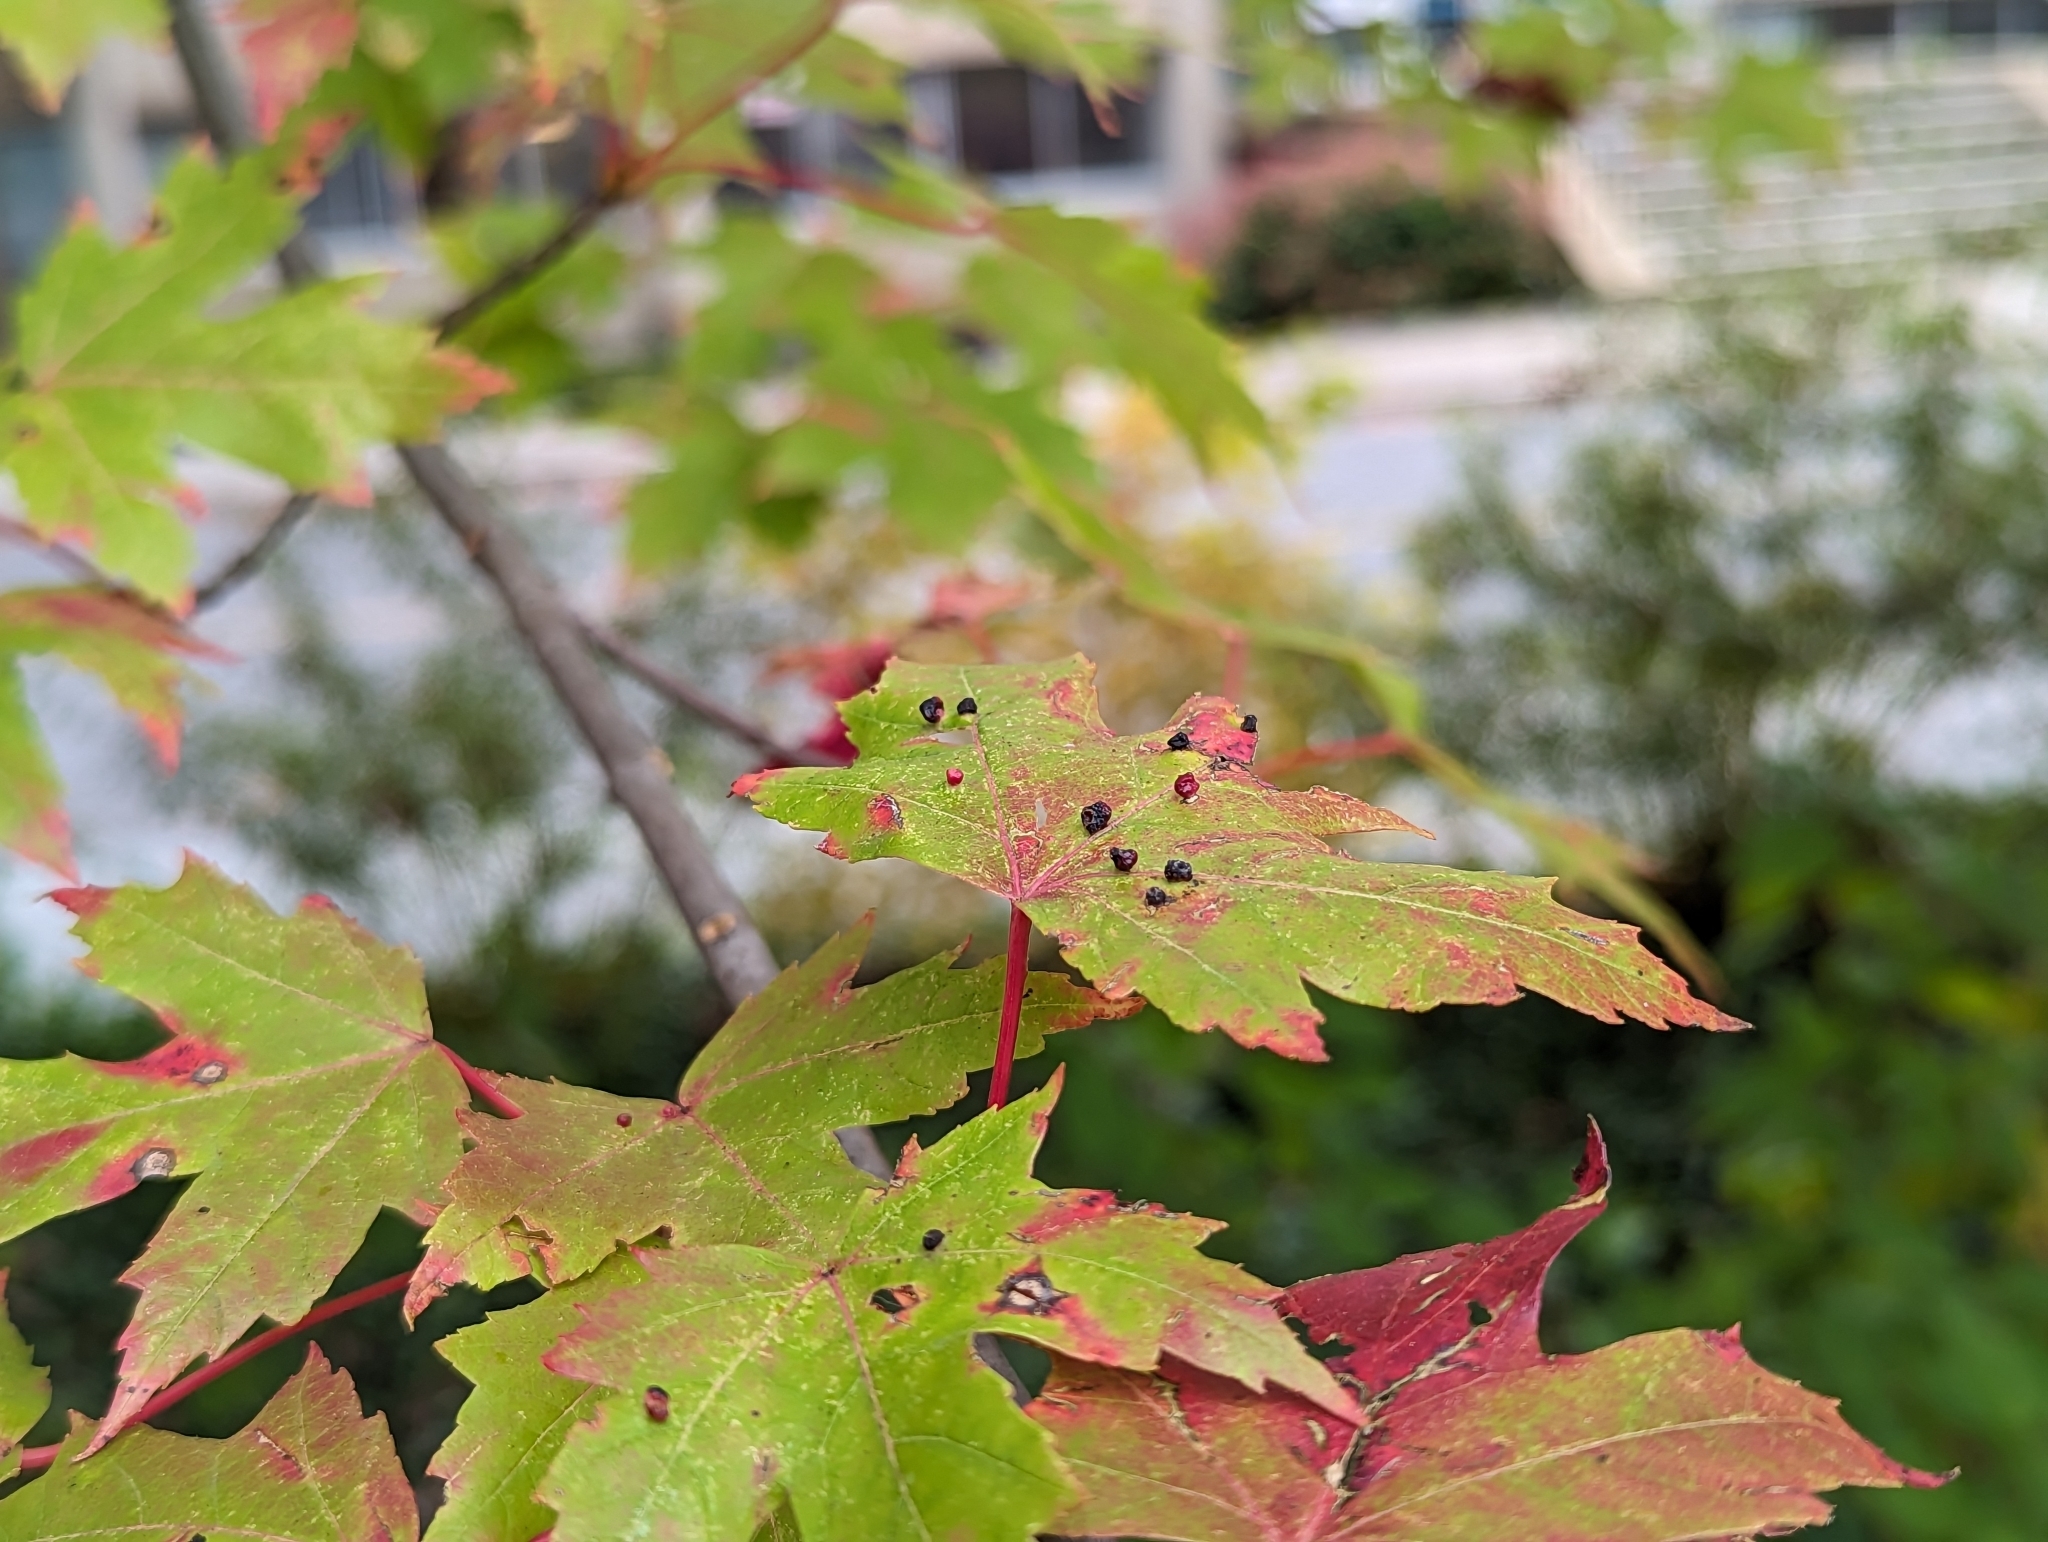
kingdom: Animalia
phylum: Arthropoda
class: Arachnida
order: Trombidiformes
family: Eriophyidae
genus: Vasates
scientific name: Vasates quadripedes
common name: Maple bladder gall mite
